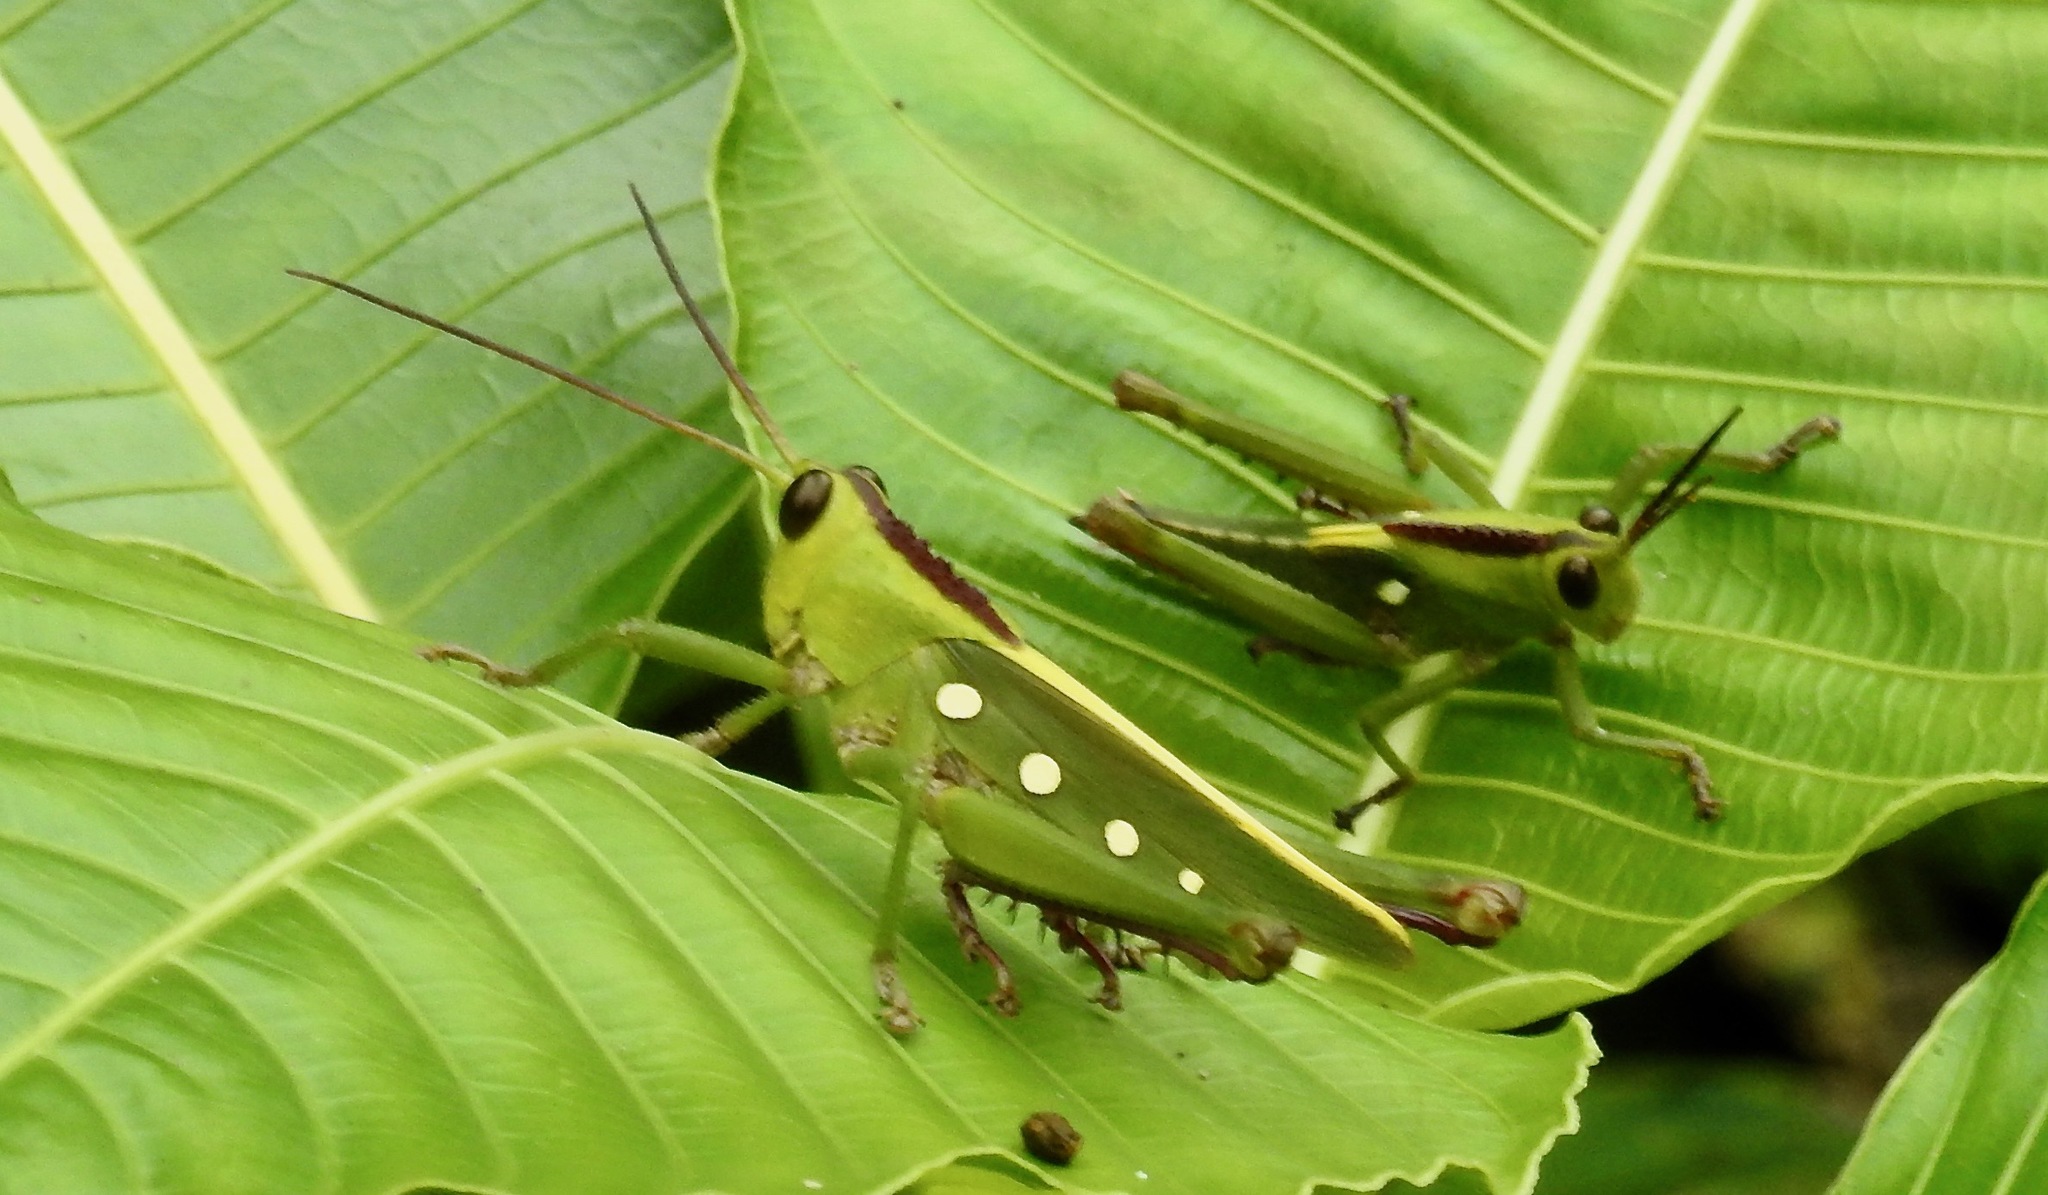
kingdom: Animalia
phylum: Arthropoda
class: Insecta
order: Orthoptera
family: Romaleidae
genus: Agriacris
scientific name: Agriacris tricristata
